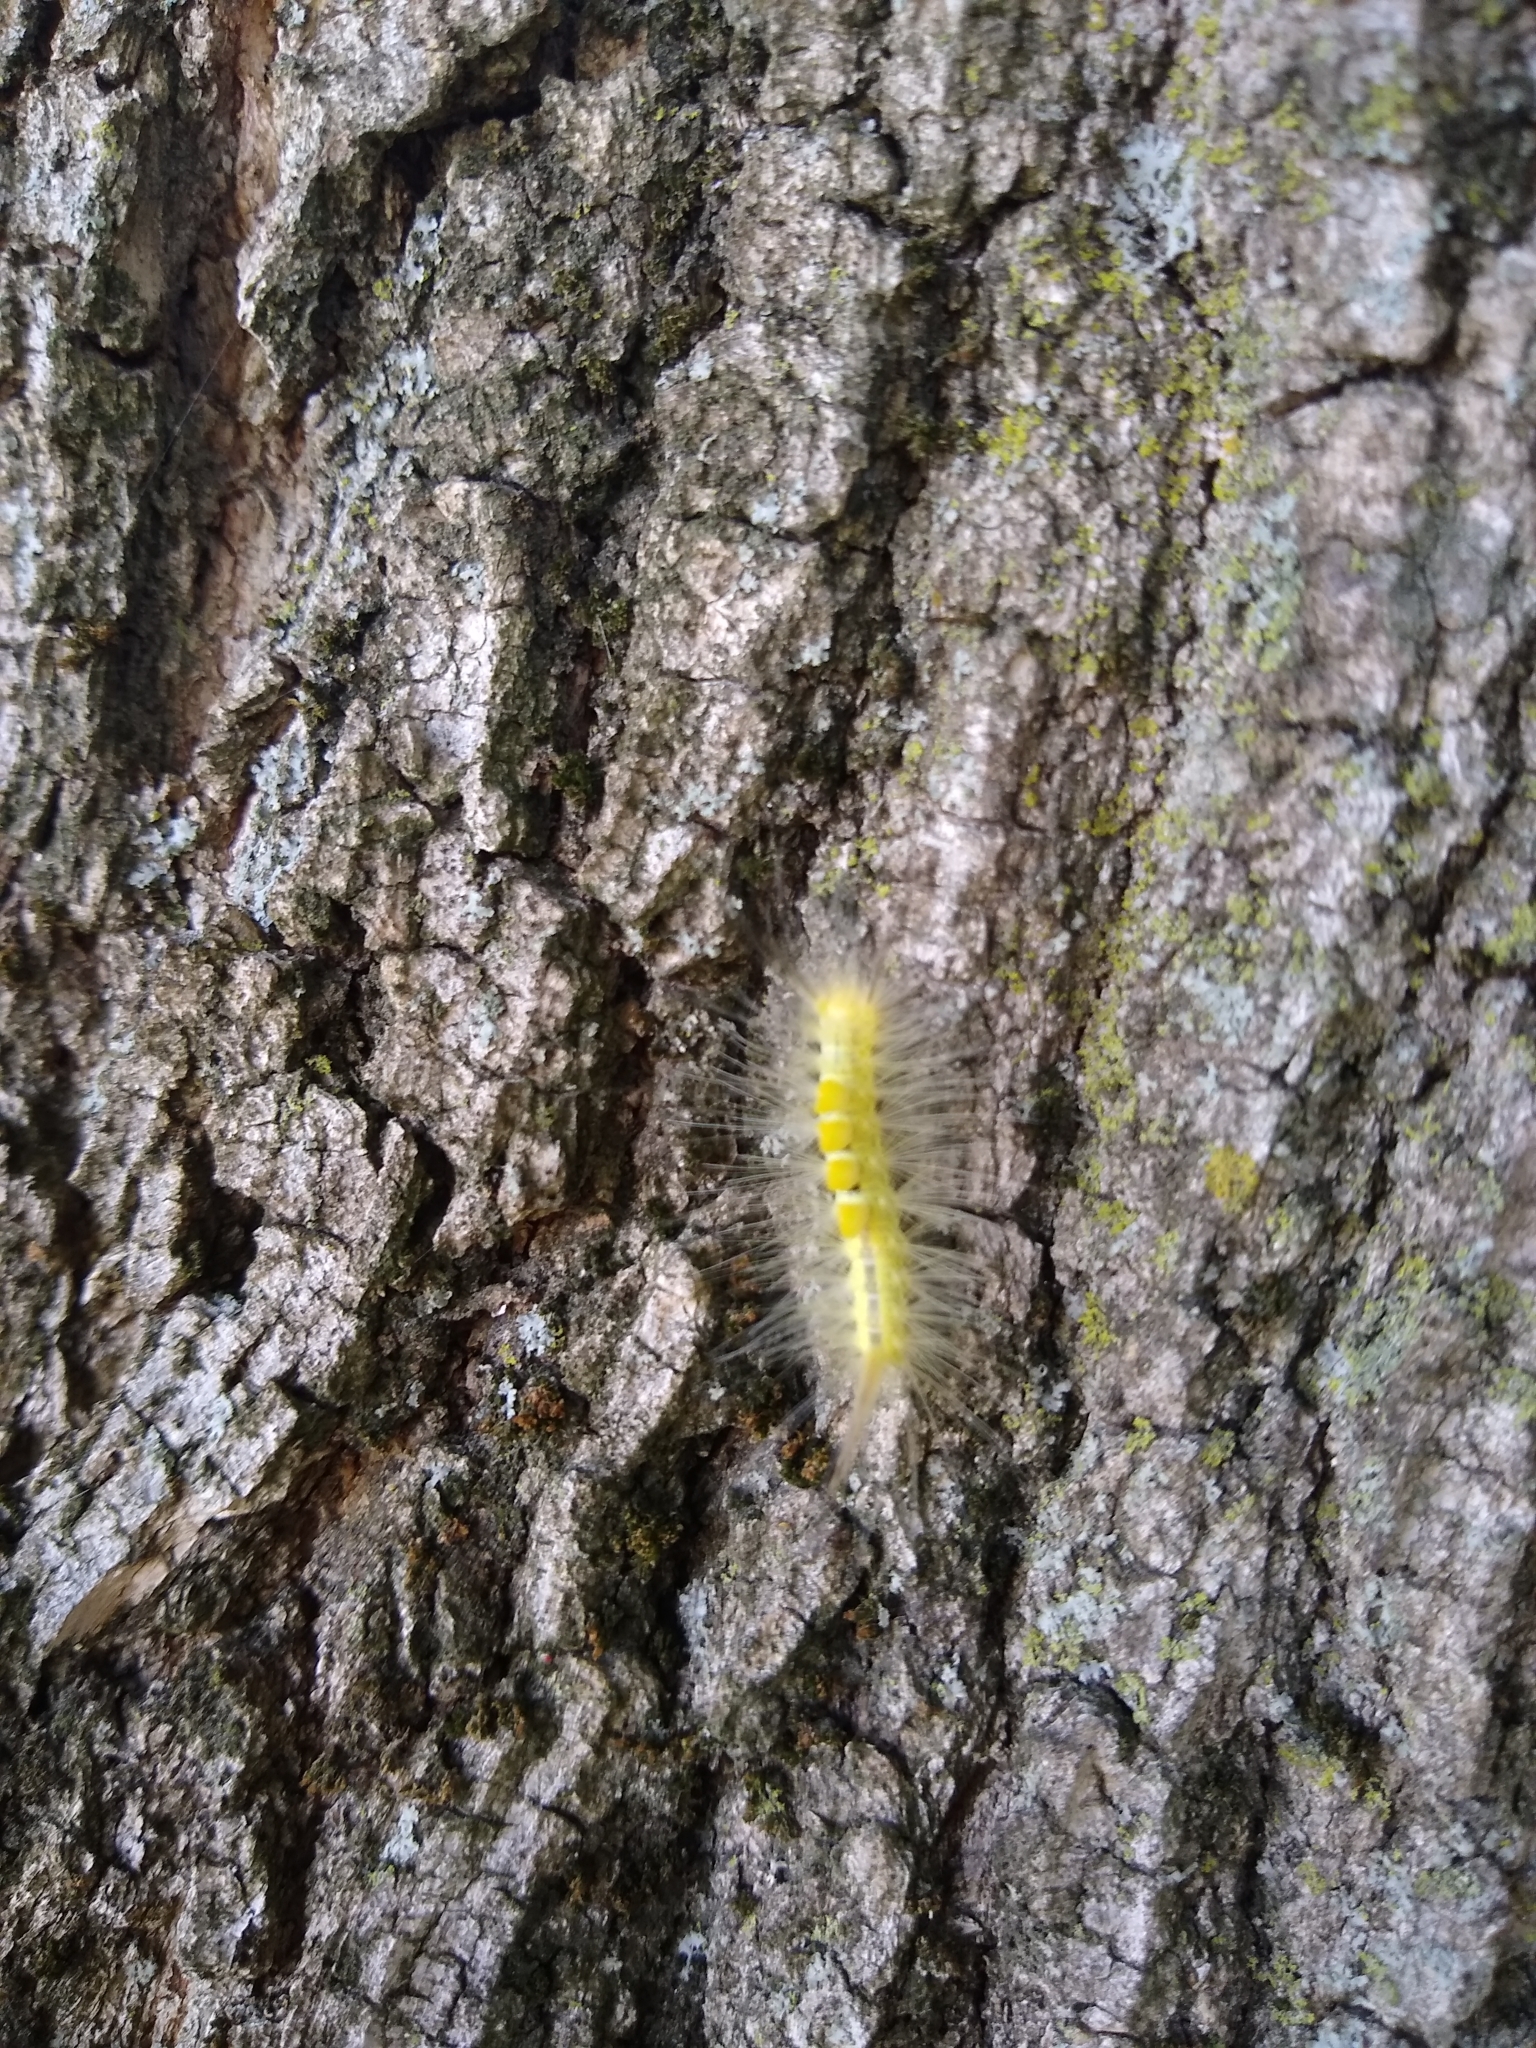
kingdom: Animalia
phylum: Arthropoda
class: Insecta
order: Lepidoptera
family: Erebidae
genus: Orgyia
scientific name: Orgyia definita
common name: Definite tussock moth
